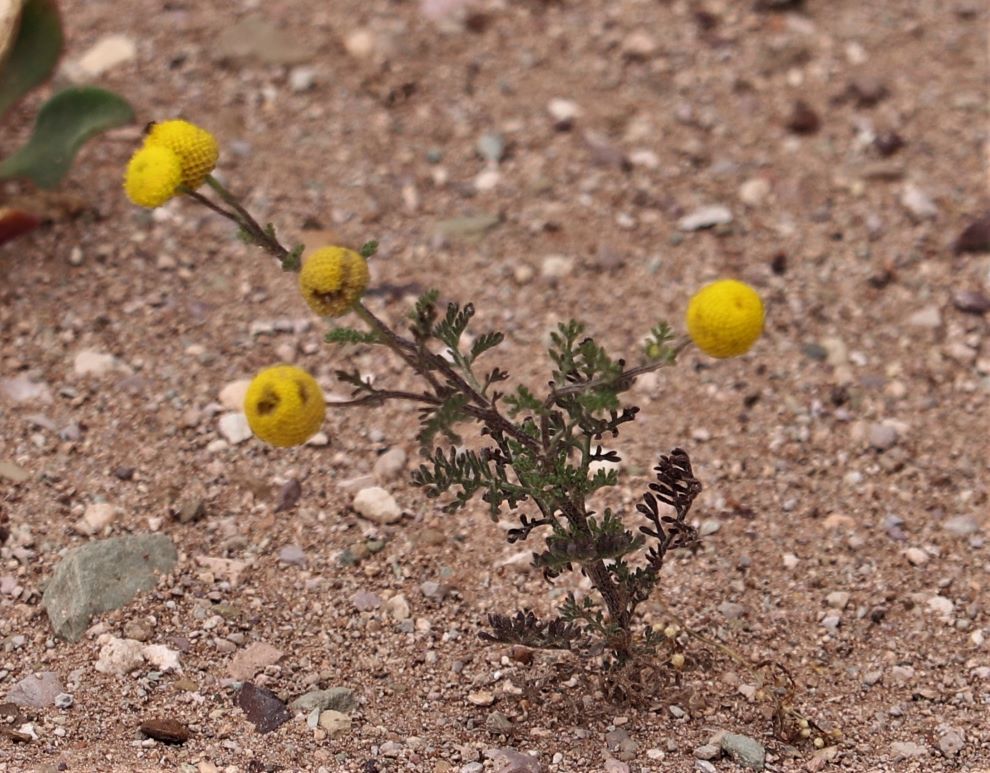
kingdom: Plantae
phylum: Tracheophyta
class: Magnoliopsida
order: Asterales
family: Asteraceae
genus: Oncosiphon
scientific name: Oncosiphon pilulifer
